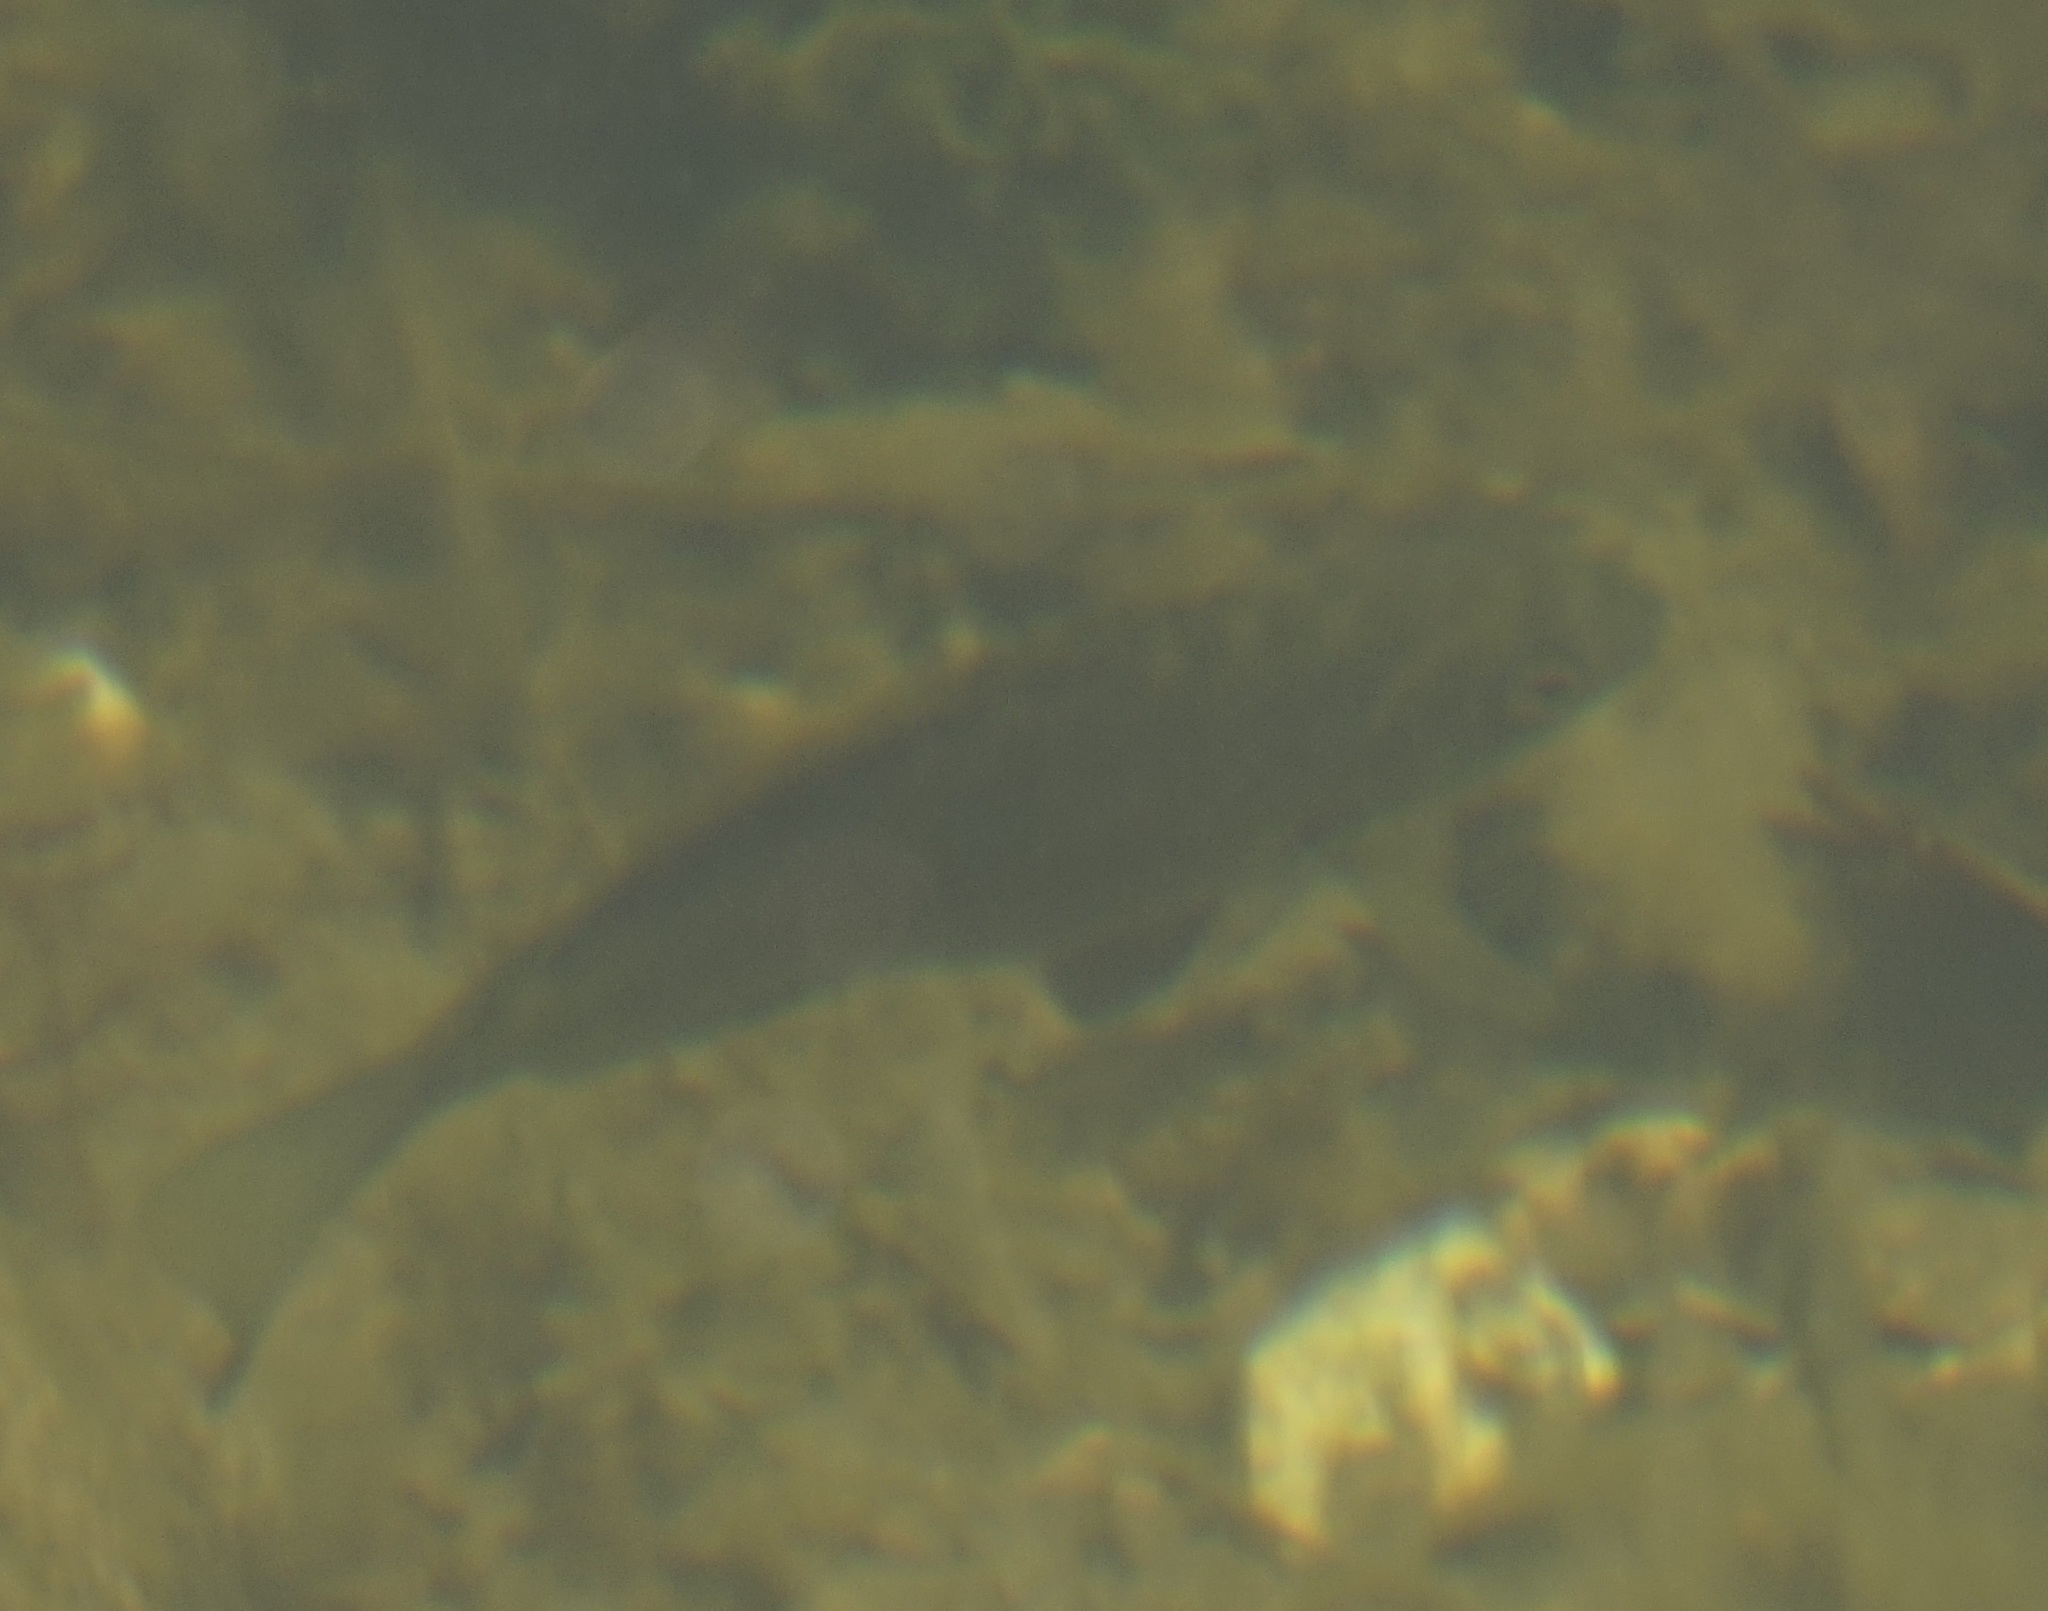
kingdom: Animalia
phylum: Chordata
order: Perciformes
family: Kyphosidae
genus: Girella
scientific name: Girella tricuspidata
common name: Parore
